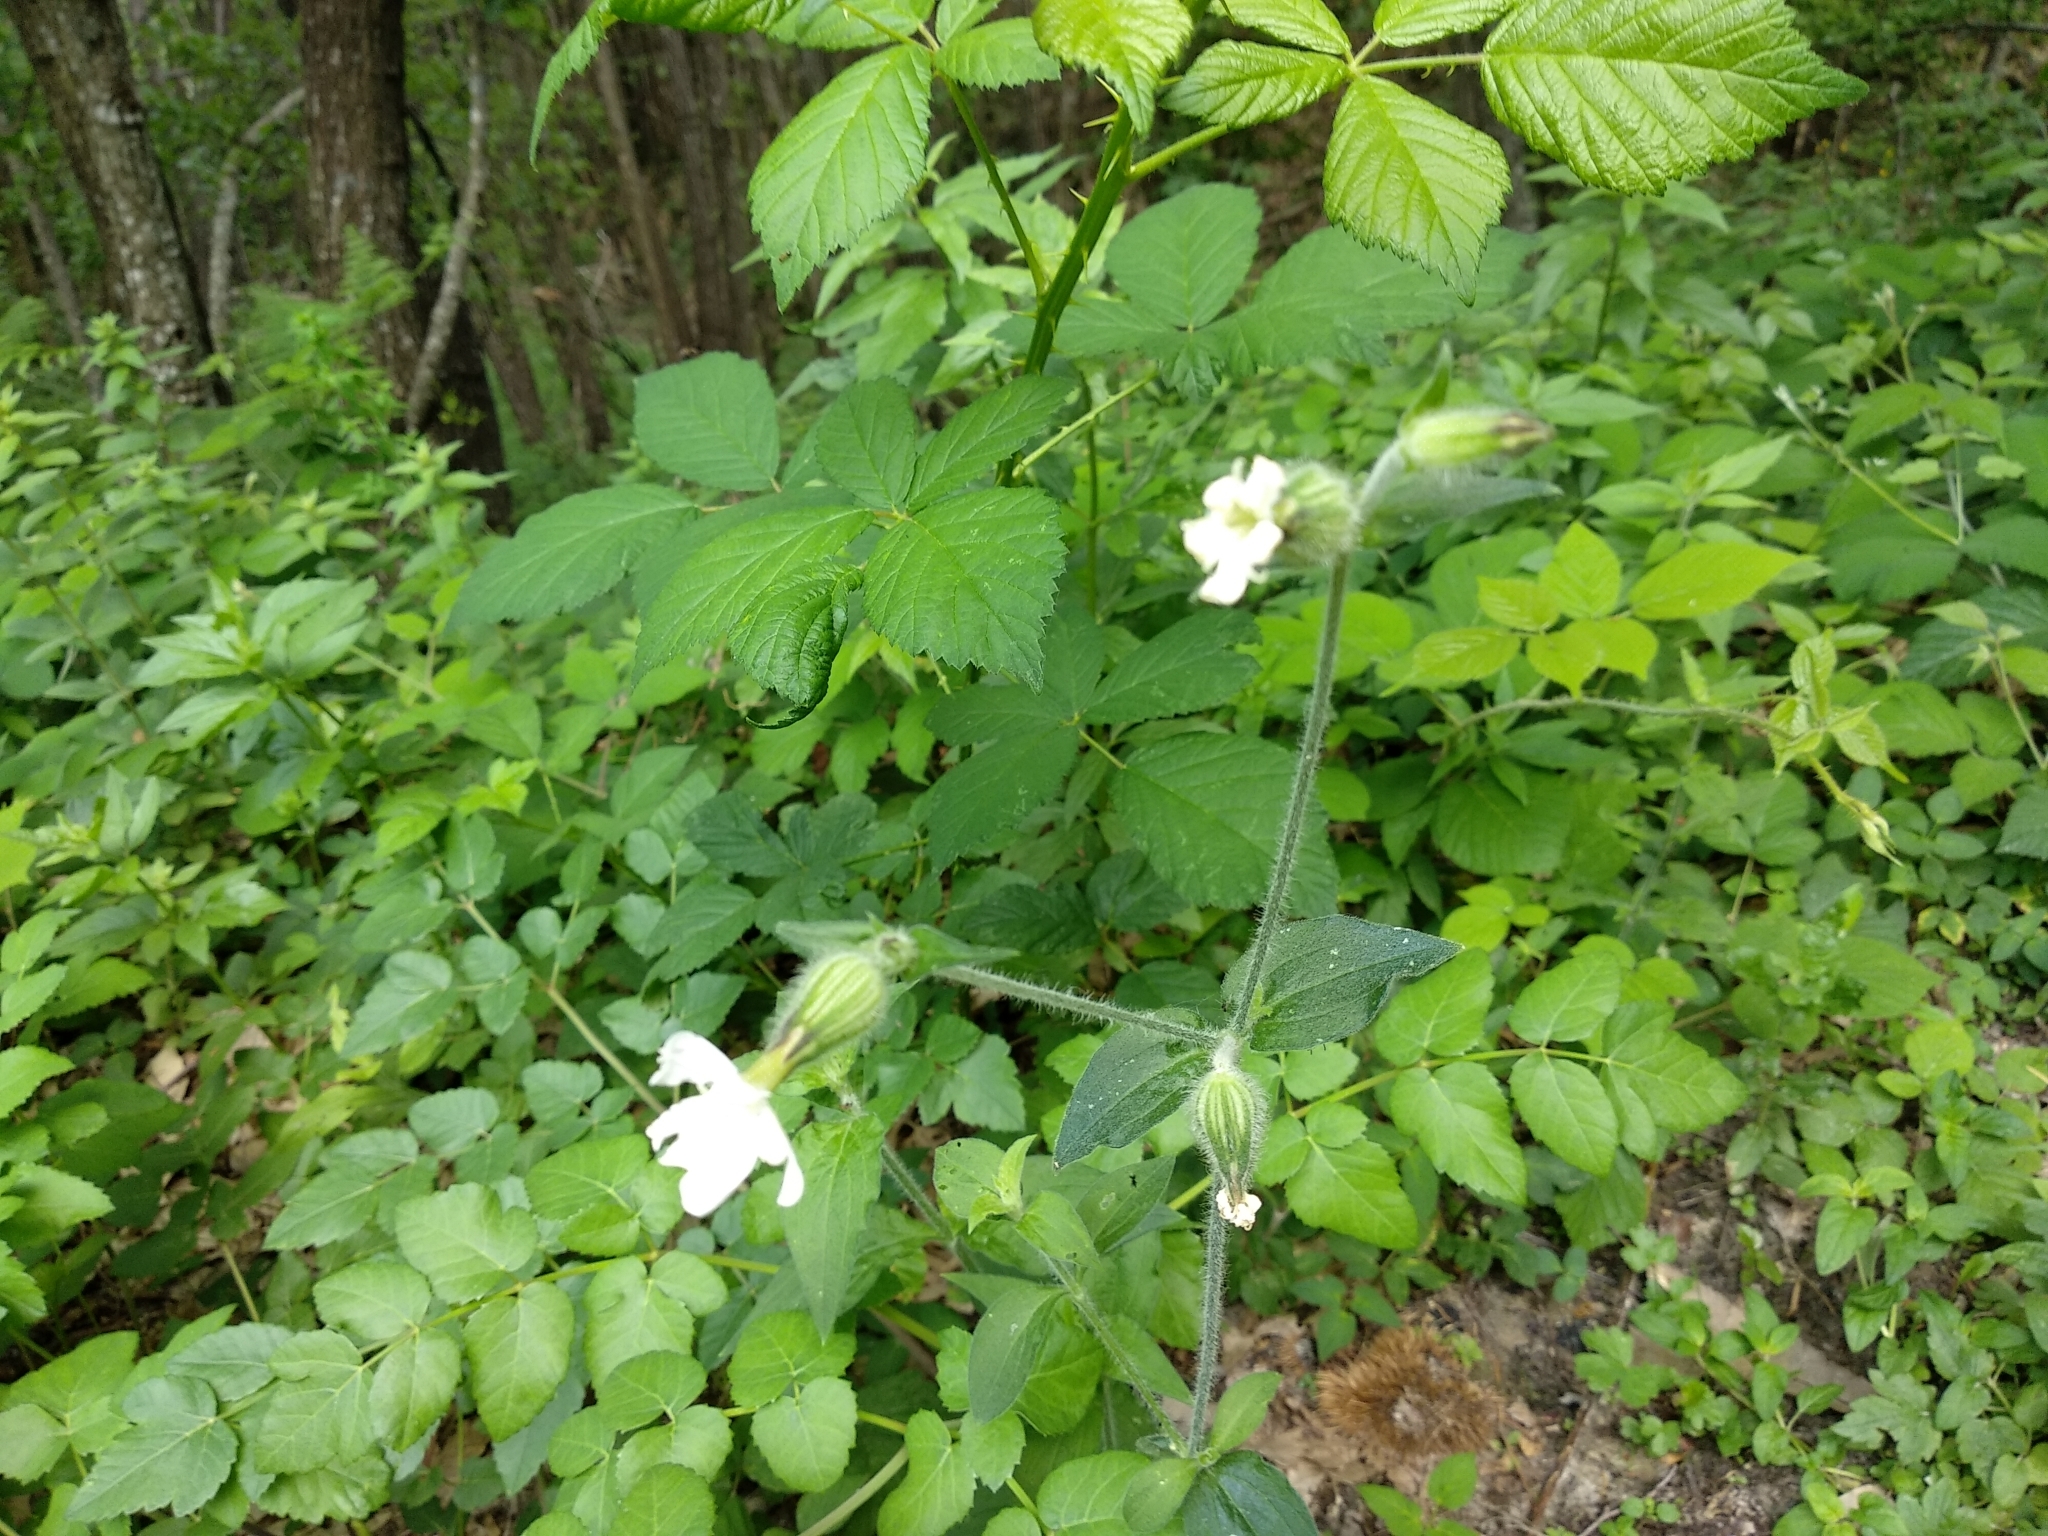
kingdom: Plantae
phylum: Tracheophyta
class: Magnoliopsida
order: Caryophyllales
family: Caryophyllaceae
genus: Silene
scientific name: Silene latifolia
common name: White campion
